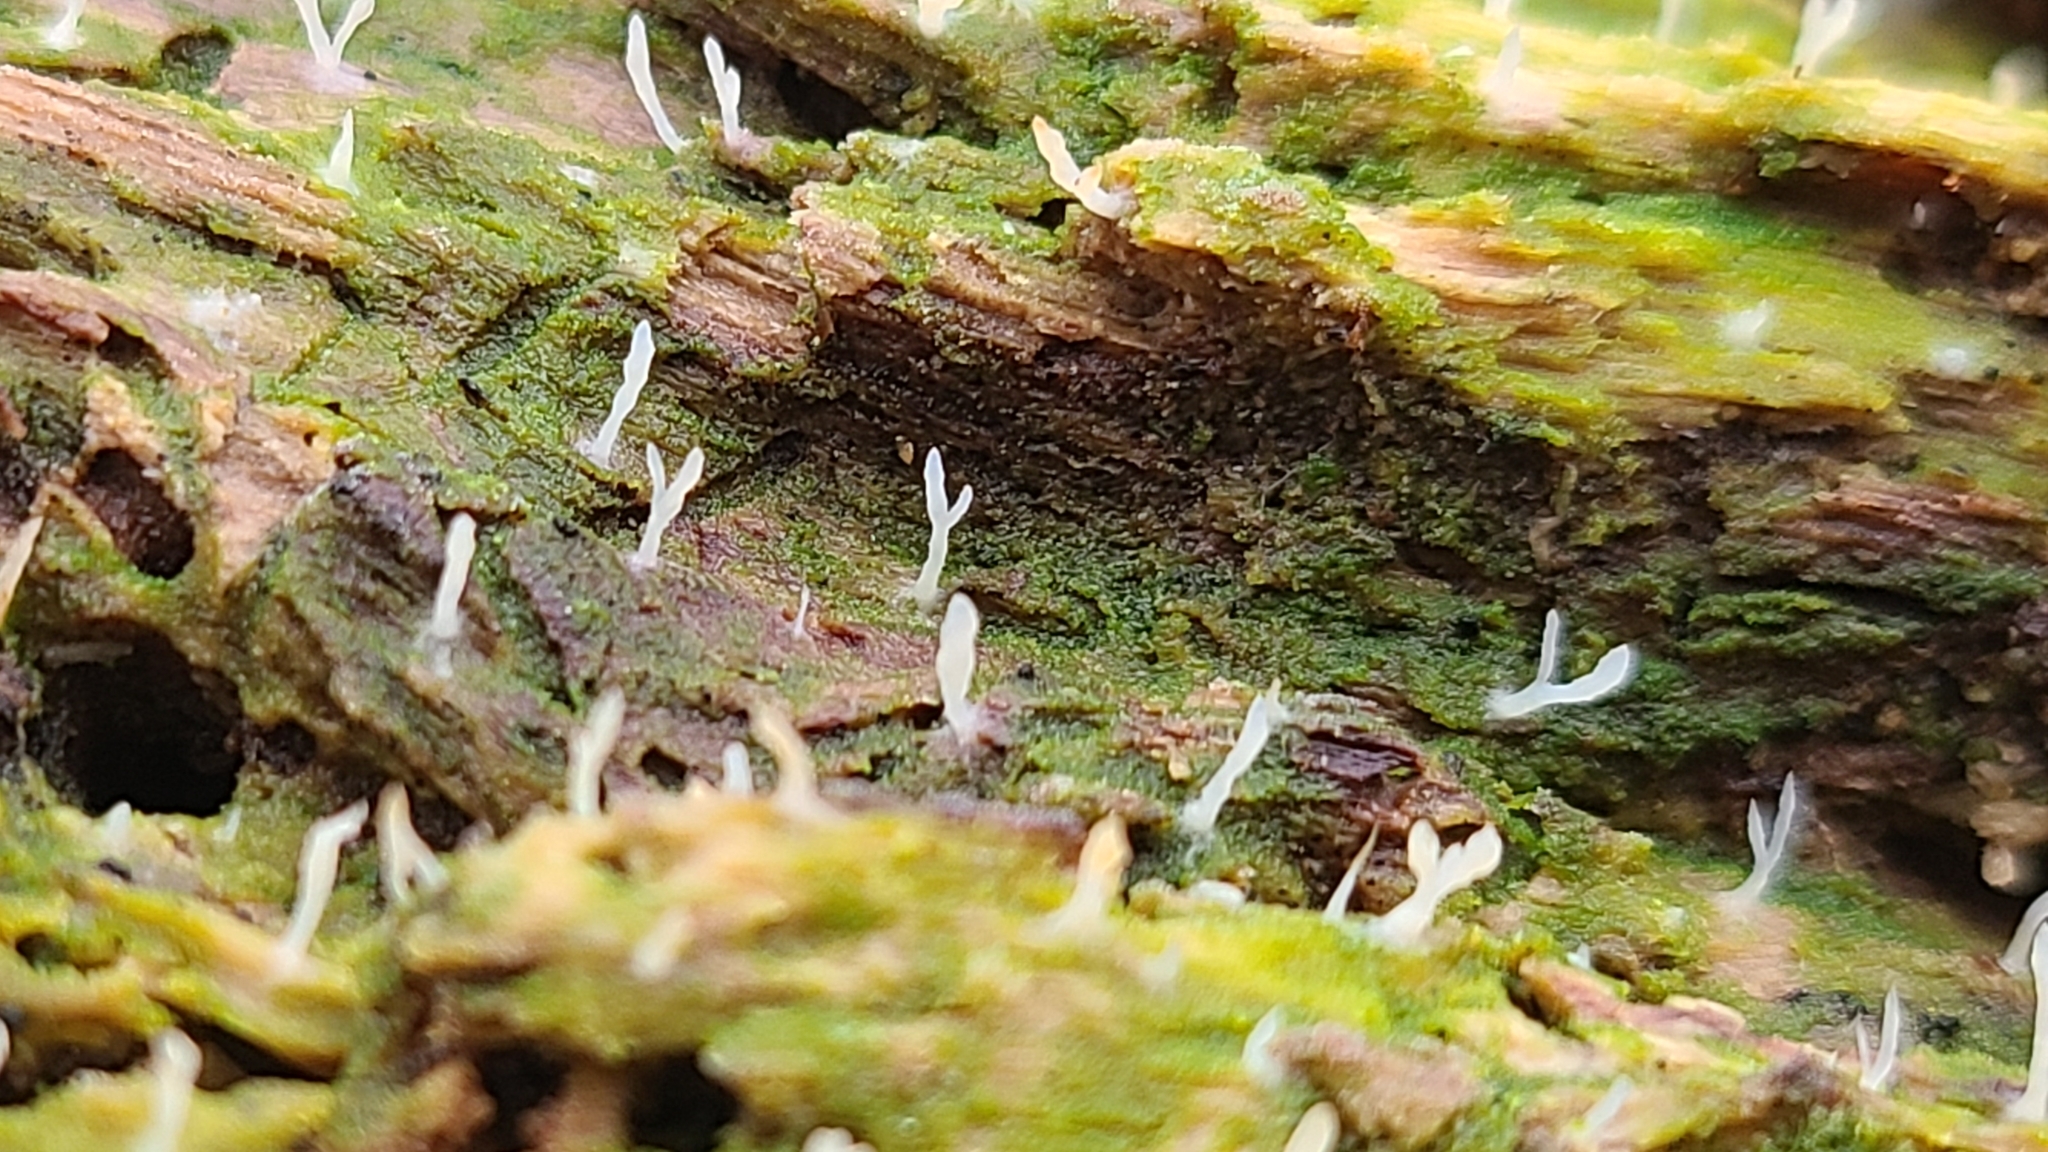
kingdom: Fungi
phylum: Basidiomycota
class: Agaricomycetes
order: Cantharellales
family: Hydnaceae
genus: Multiclavula
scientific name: Multiclavula mucida
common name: White green-algae coral
